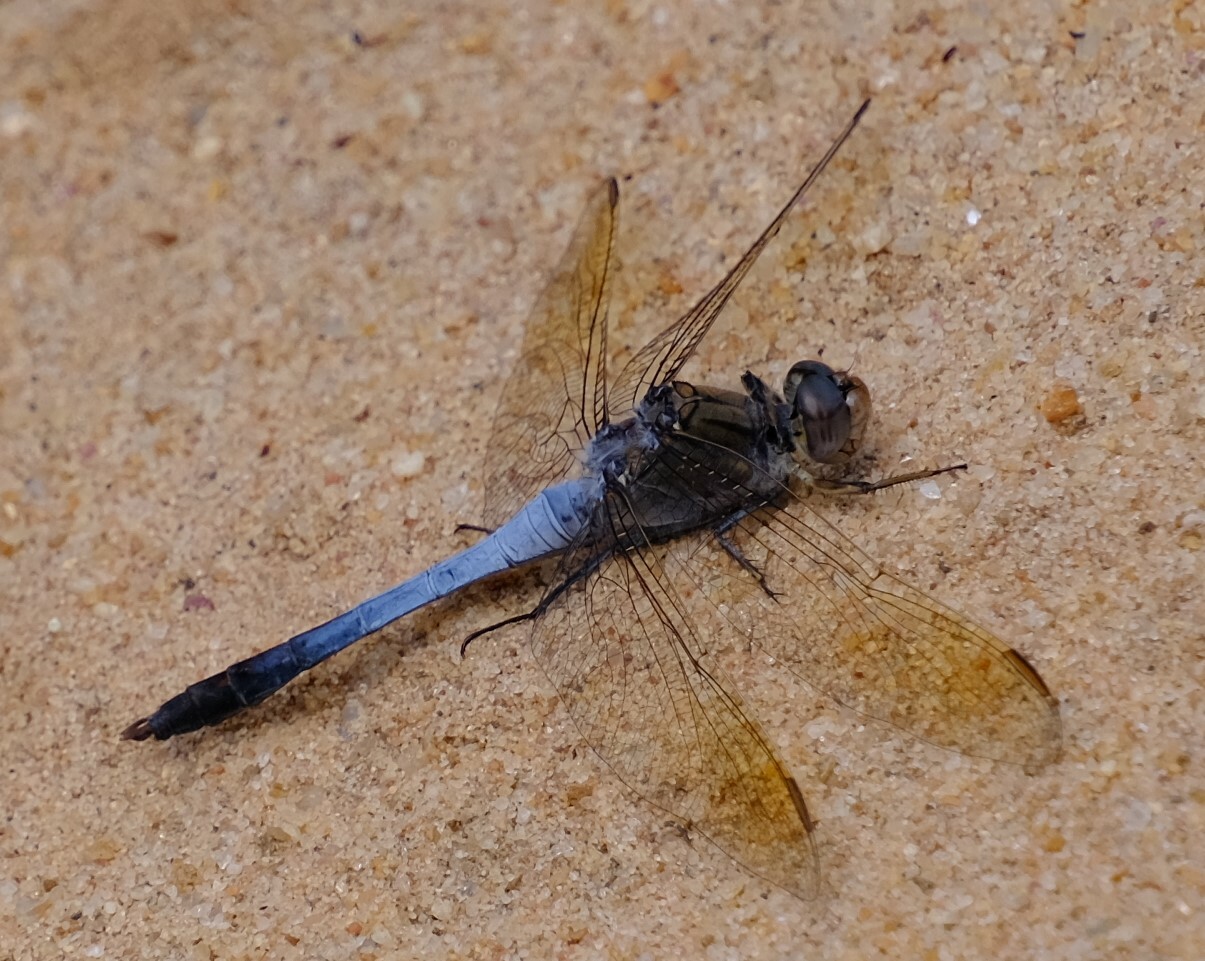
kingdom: Animalia
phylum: Arthropoda
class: Insecta
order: Odonata
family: Libellulidae
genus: Orthetrum
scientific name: Orthetrum caledonicum
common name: Blue skimmer
